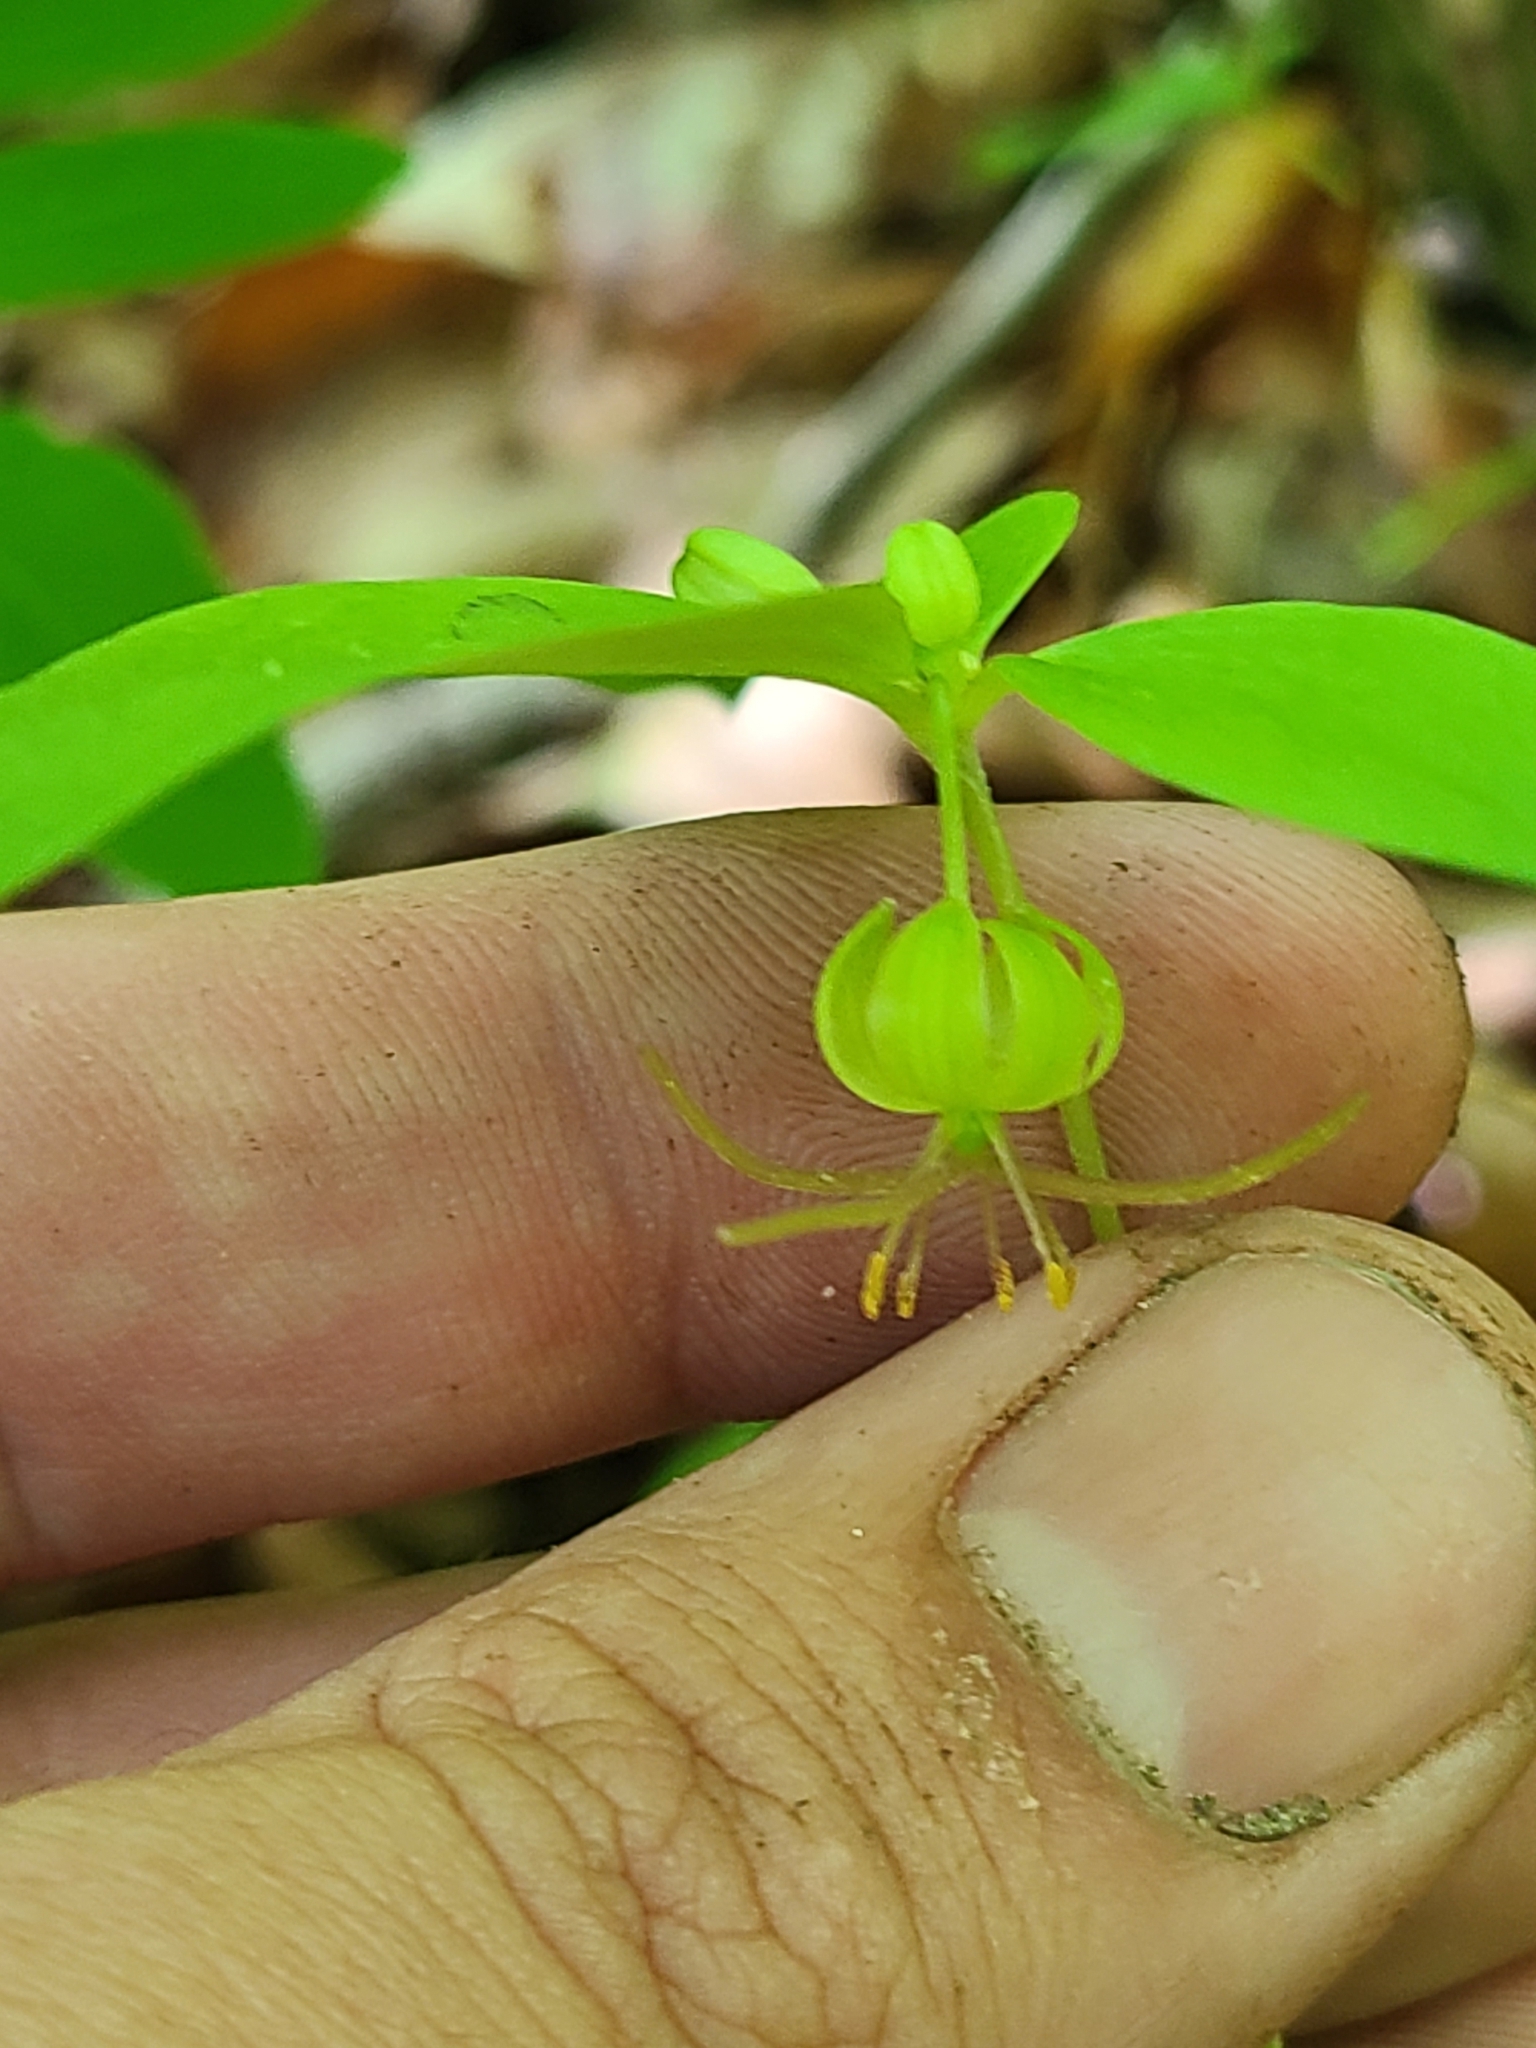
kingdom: Plantae
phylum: Tracheophyta
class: Liliopsida
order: Liliales
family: Liliaceae
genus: Medeola
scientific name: Medeola virginiana
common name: Indian cucumber-root
